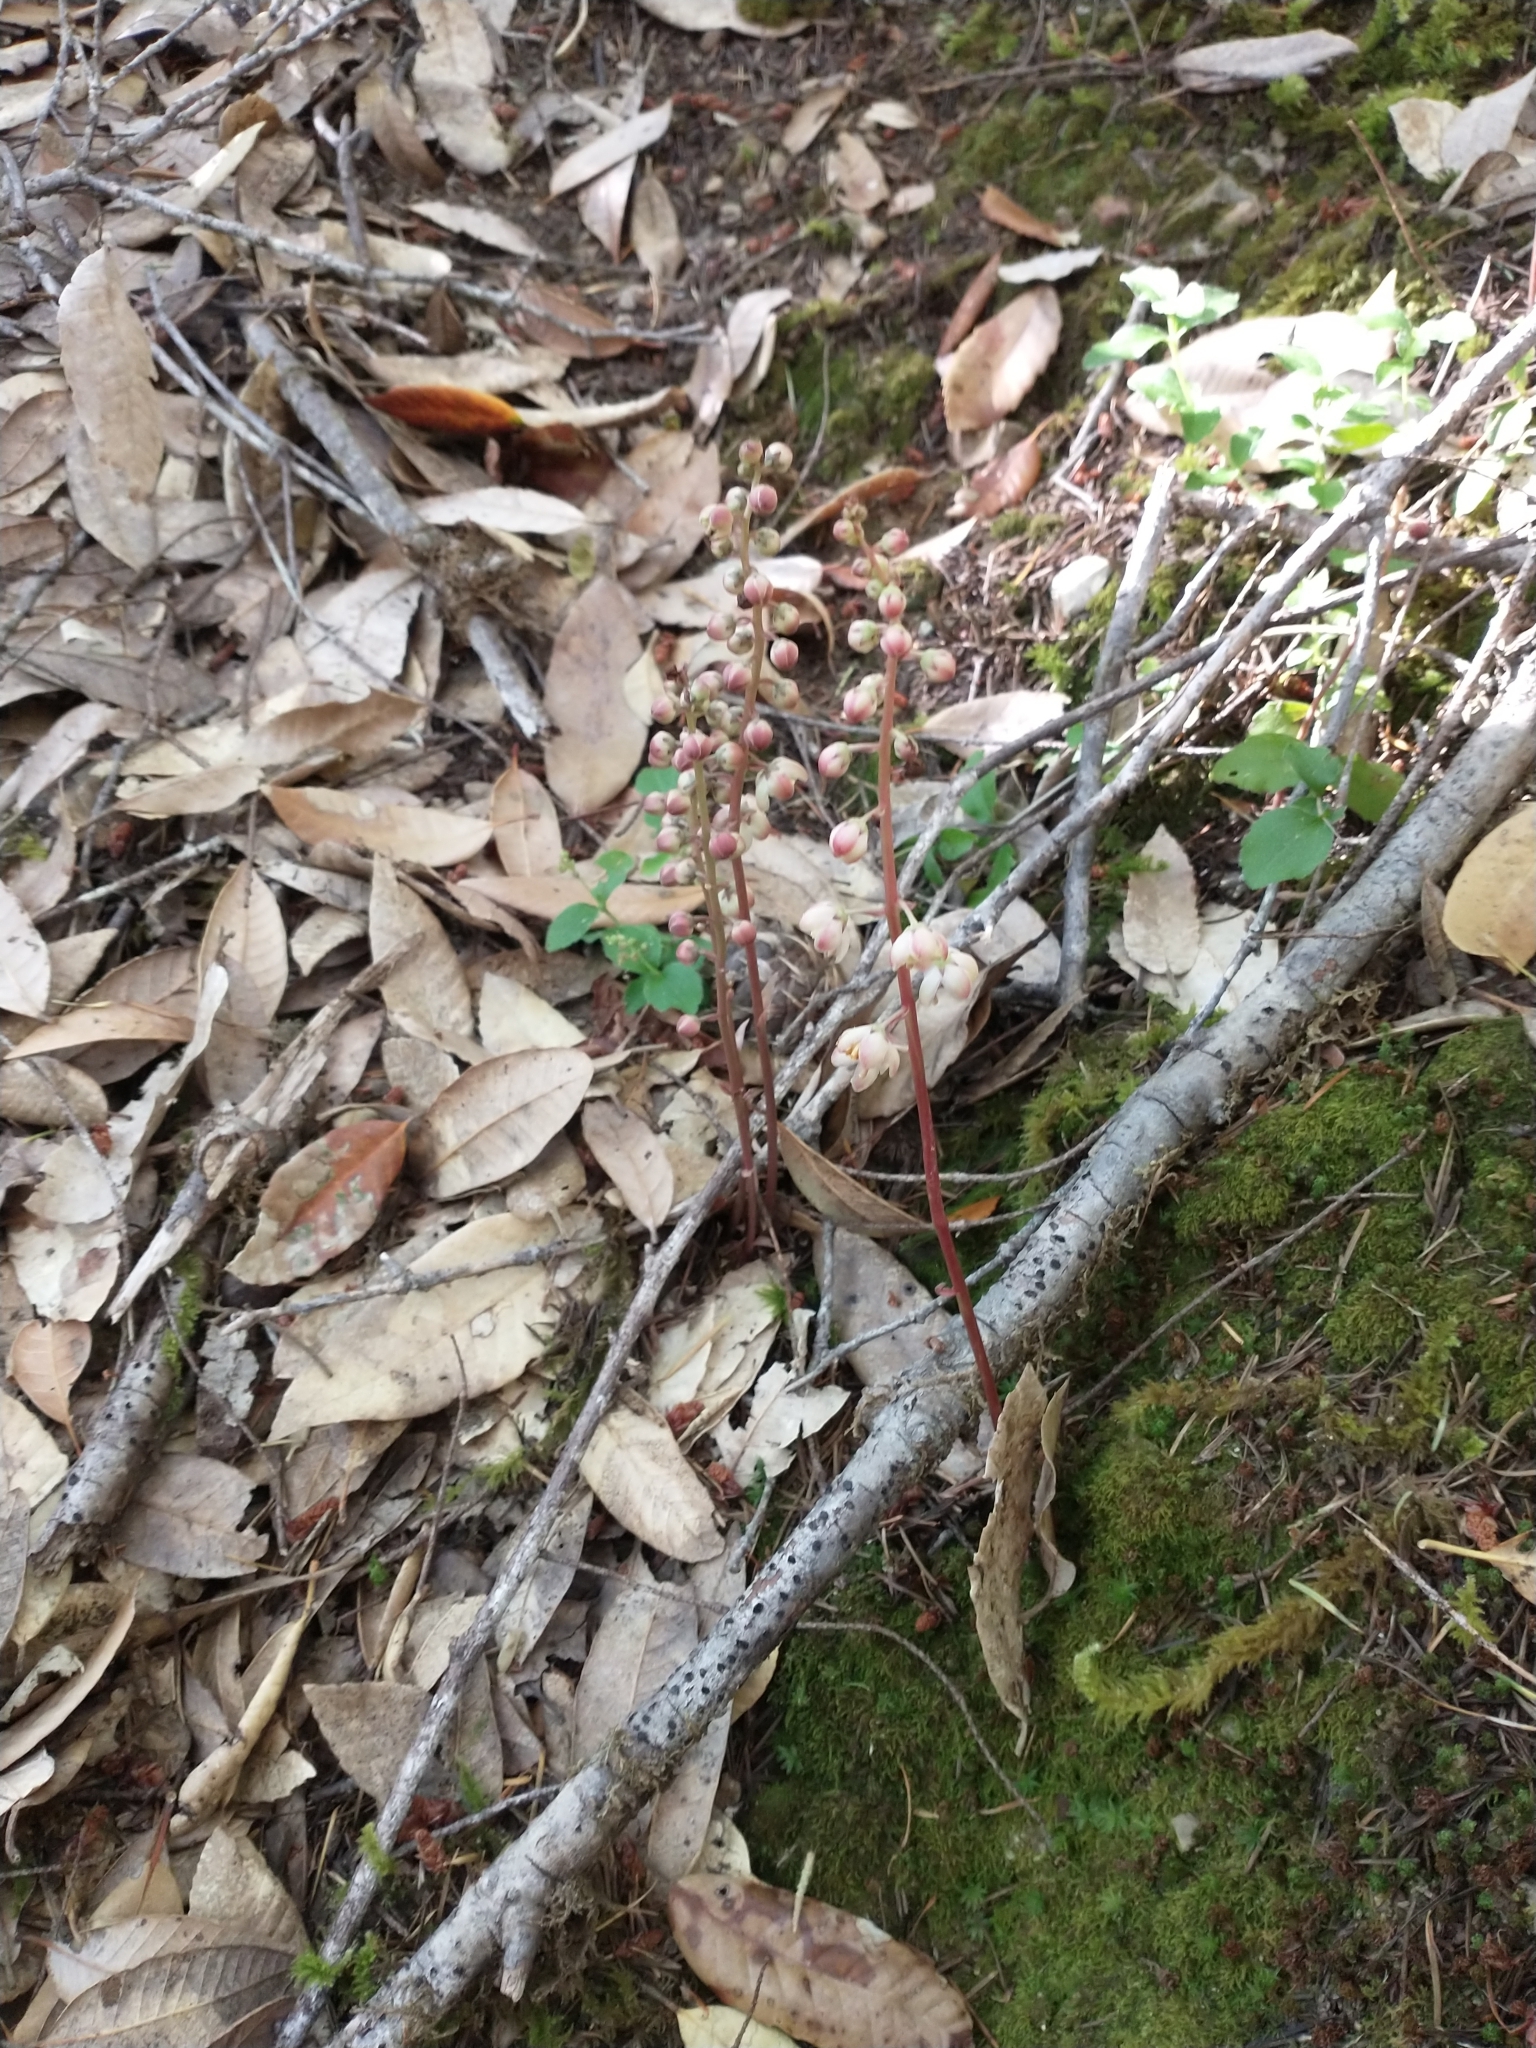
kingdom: Plantae
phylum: Tracheophyta
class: Magnoliopsida
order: Ericales
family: Ericaceae
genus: Pyrola
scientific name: Pyrola aphylla
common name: Leafless wintergreen
